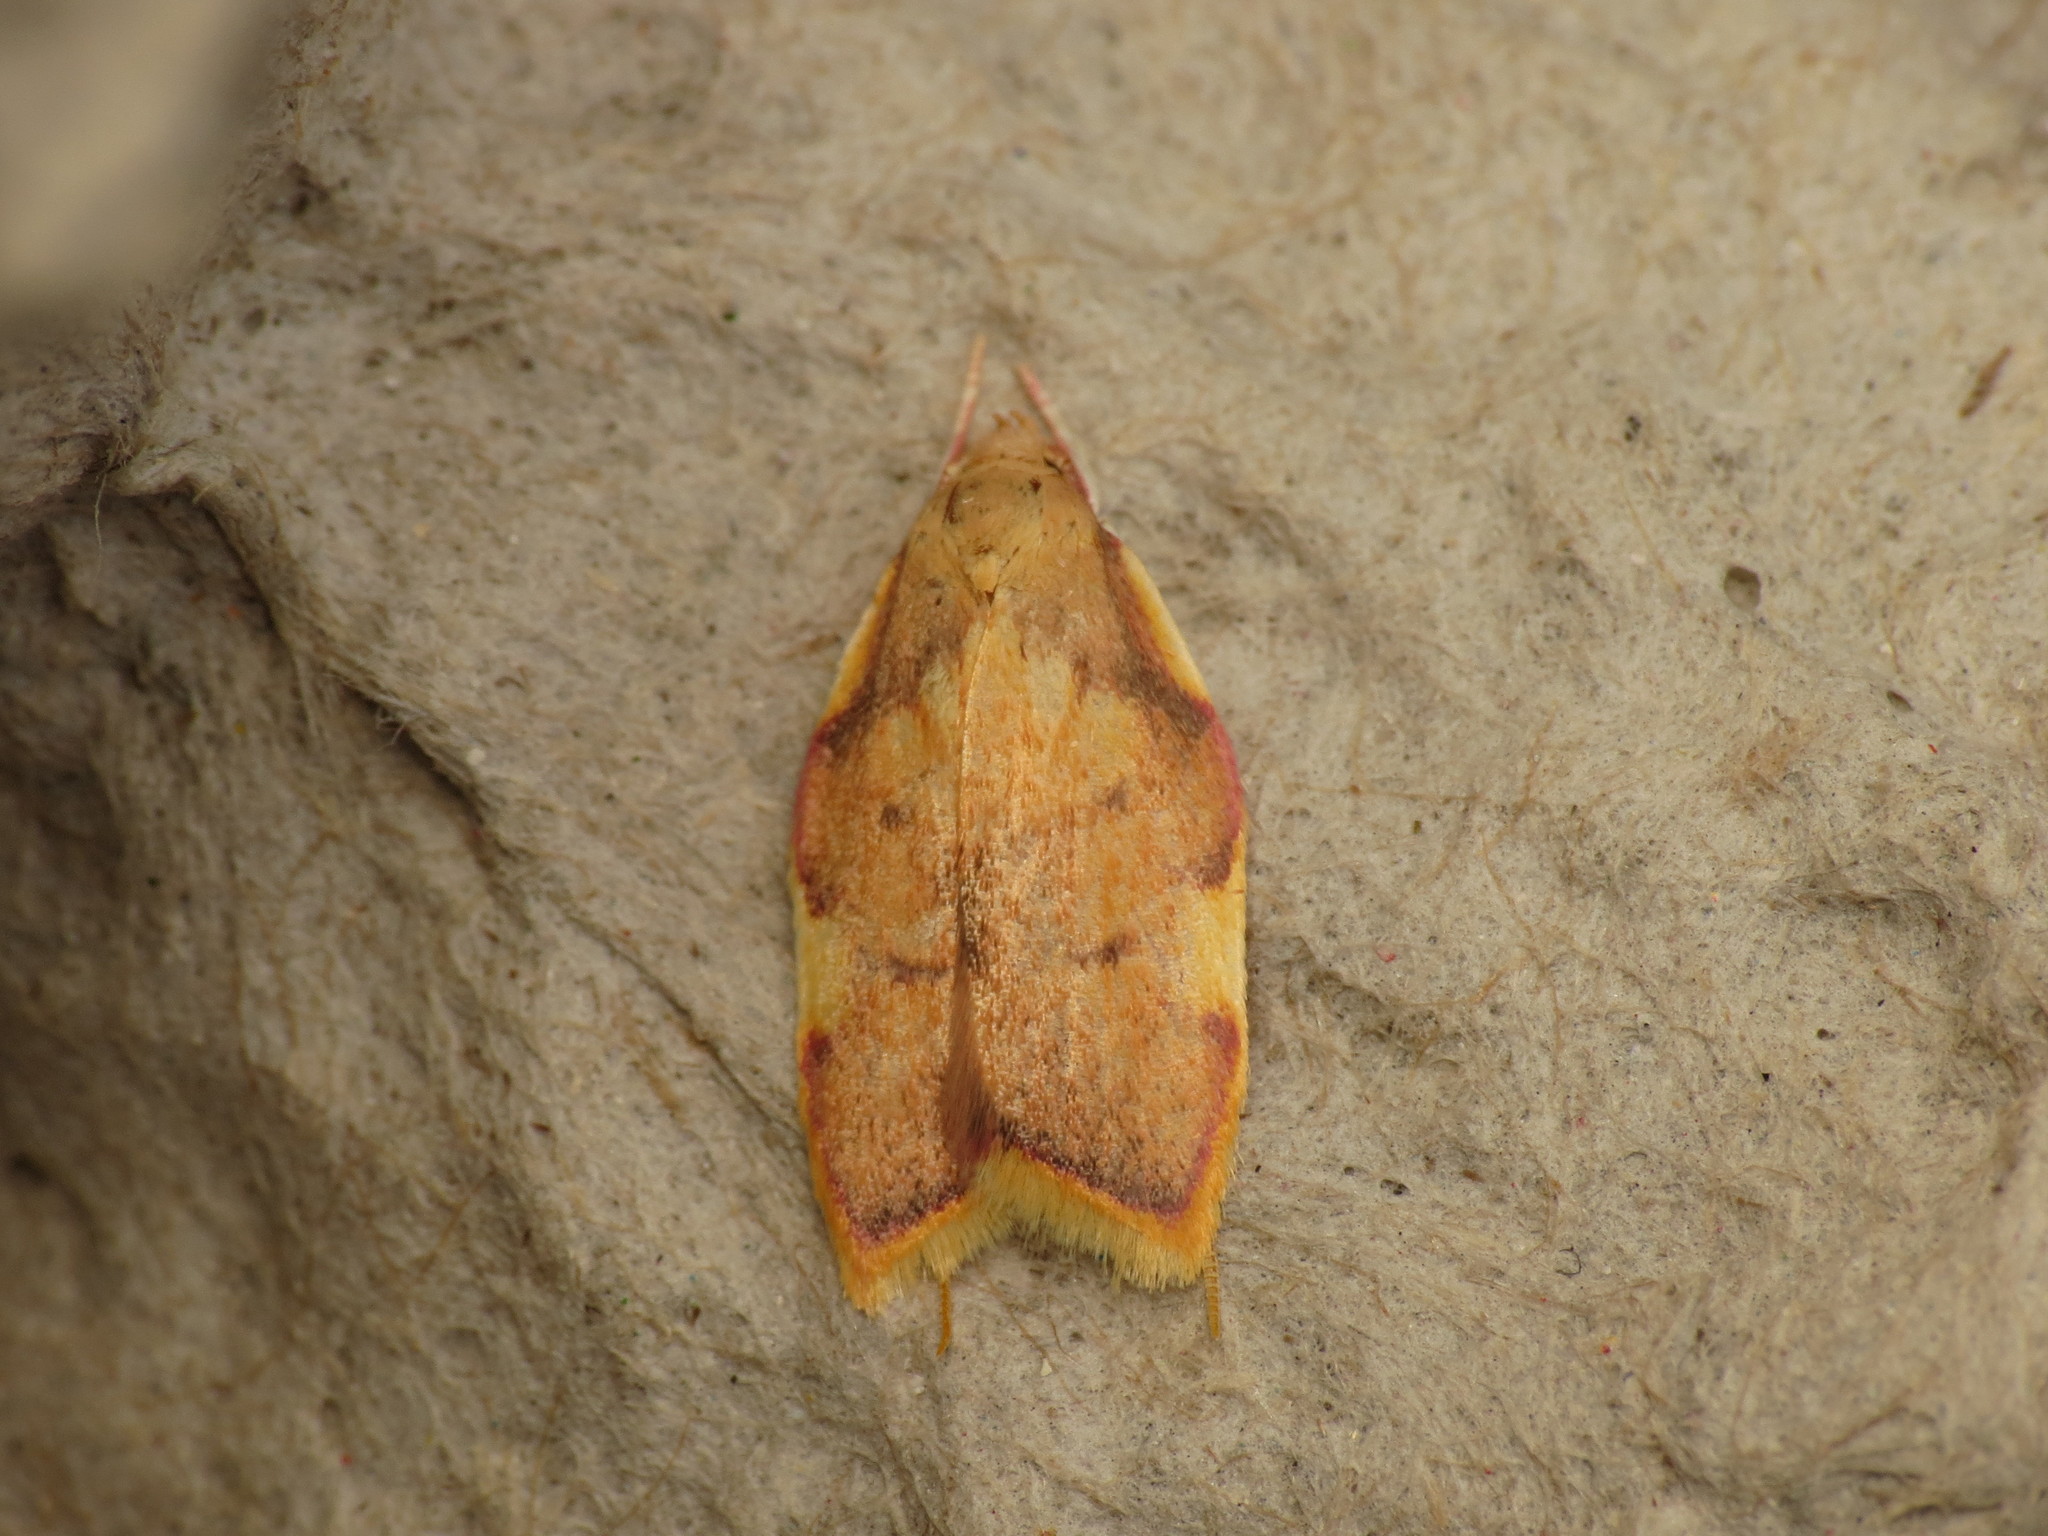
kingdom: Animalia
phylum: Arthropoda
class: Insecta
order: Lepidoptera
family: Peleopodidae
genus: Carcina
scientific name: Carcina quercana
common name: Moth
